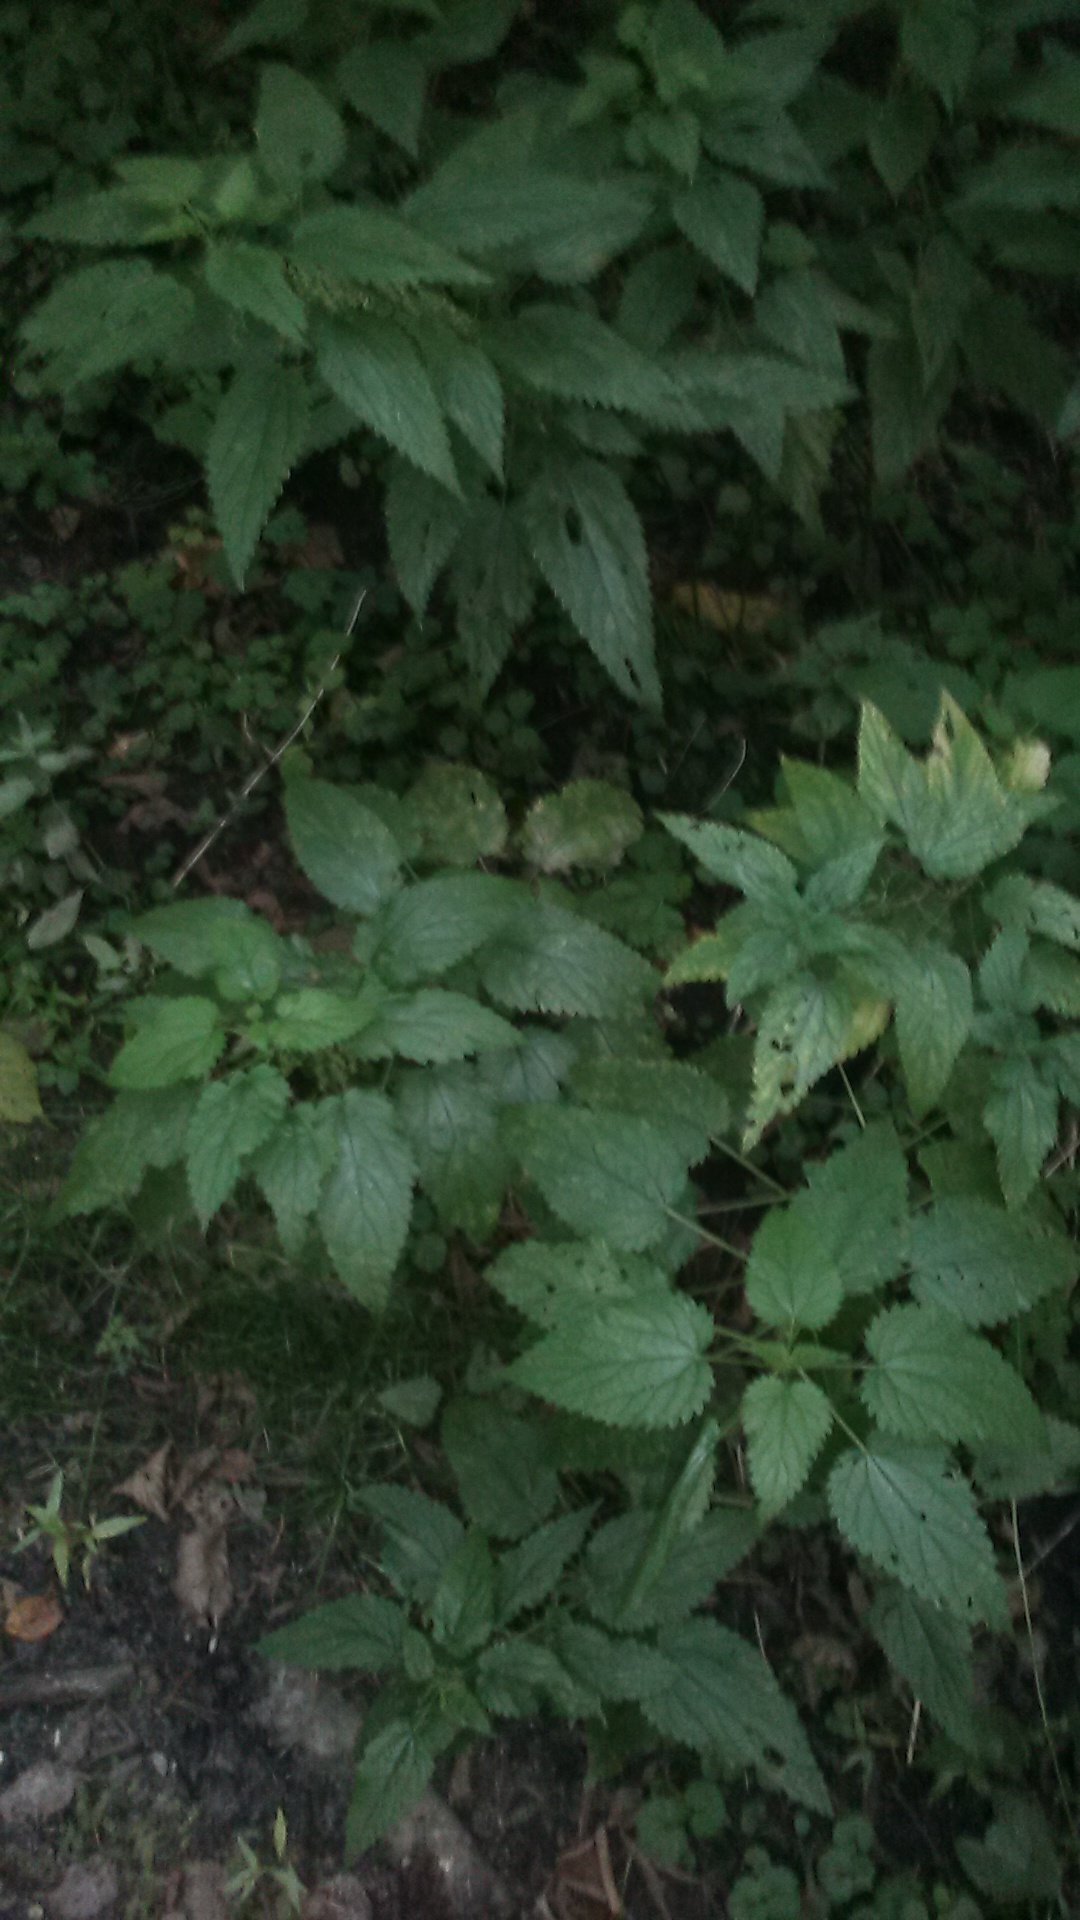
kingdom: Plantae
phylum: Tracheophyta
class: Magnoliopsida
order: Rosales
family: Urticaceae
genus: Urtica
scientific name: Urtica dioica
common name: Common nettle
